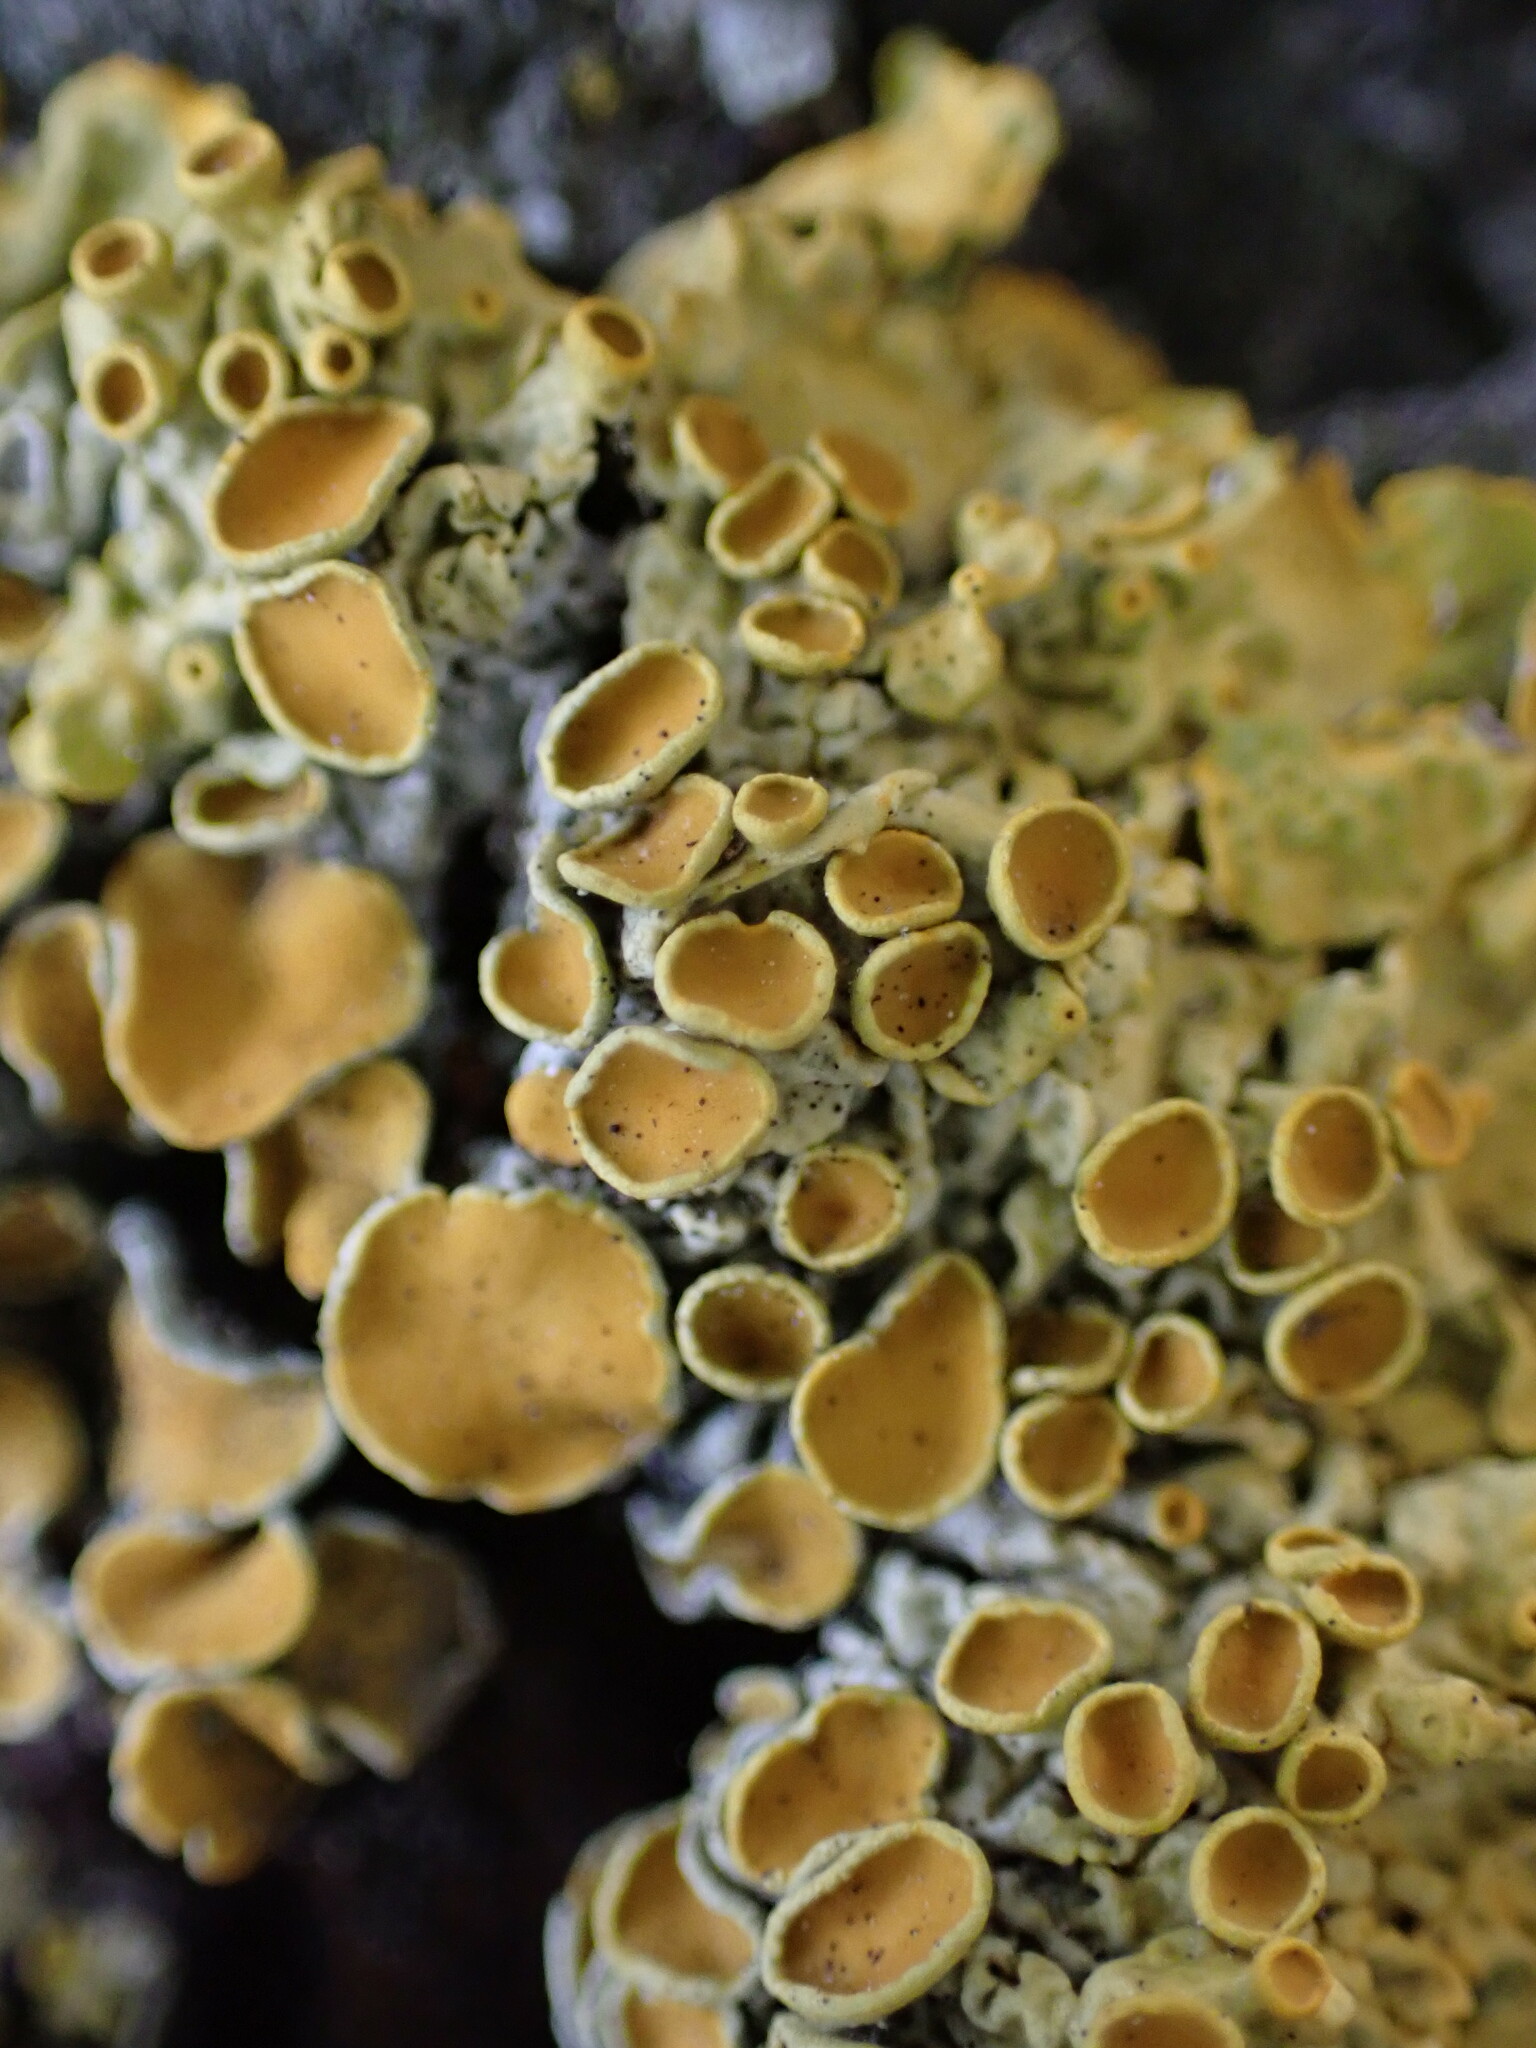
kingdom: Fungi
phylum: Ascomycota
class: Lecanoromycetes
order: Teloschistales
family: Teloschistaceae
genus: Xanthoria
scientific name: Xanthoria parietina
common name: Common orange lichen
